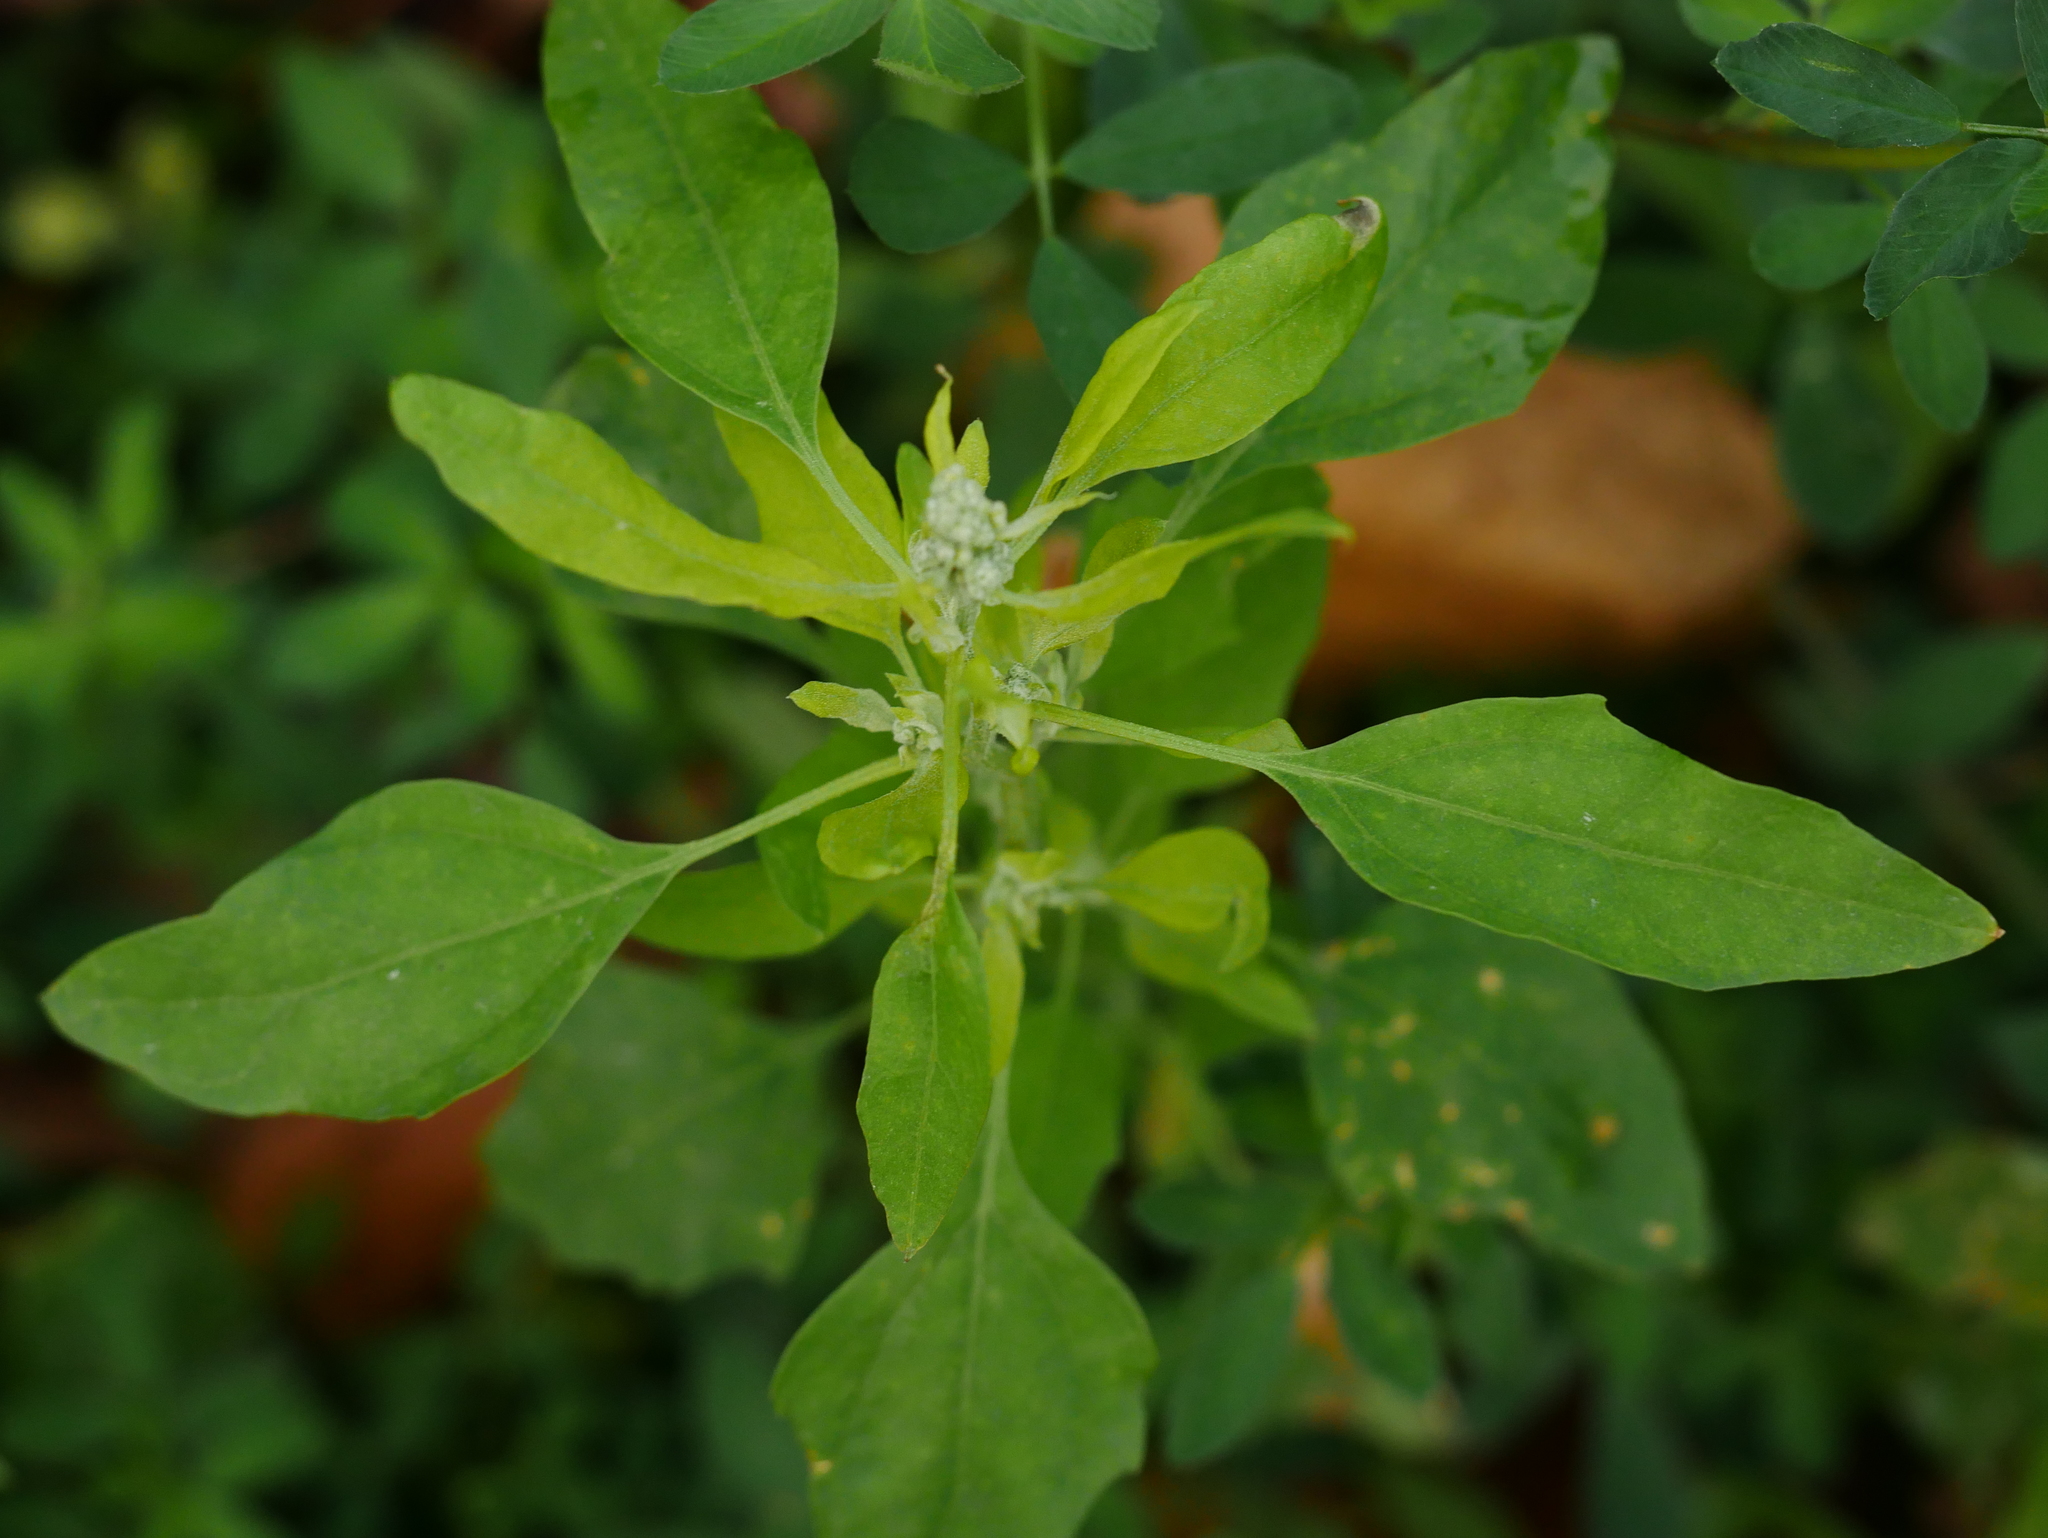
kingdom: Plantae
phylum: Tracheophyta
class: Magnoliopsida
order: Caryophyllales
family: Amaranthaceae
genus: Chenopodium
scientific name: Chenopodium album
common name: Fat-hen
